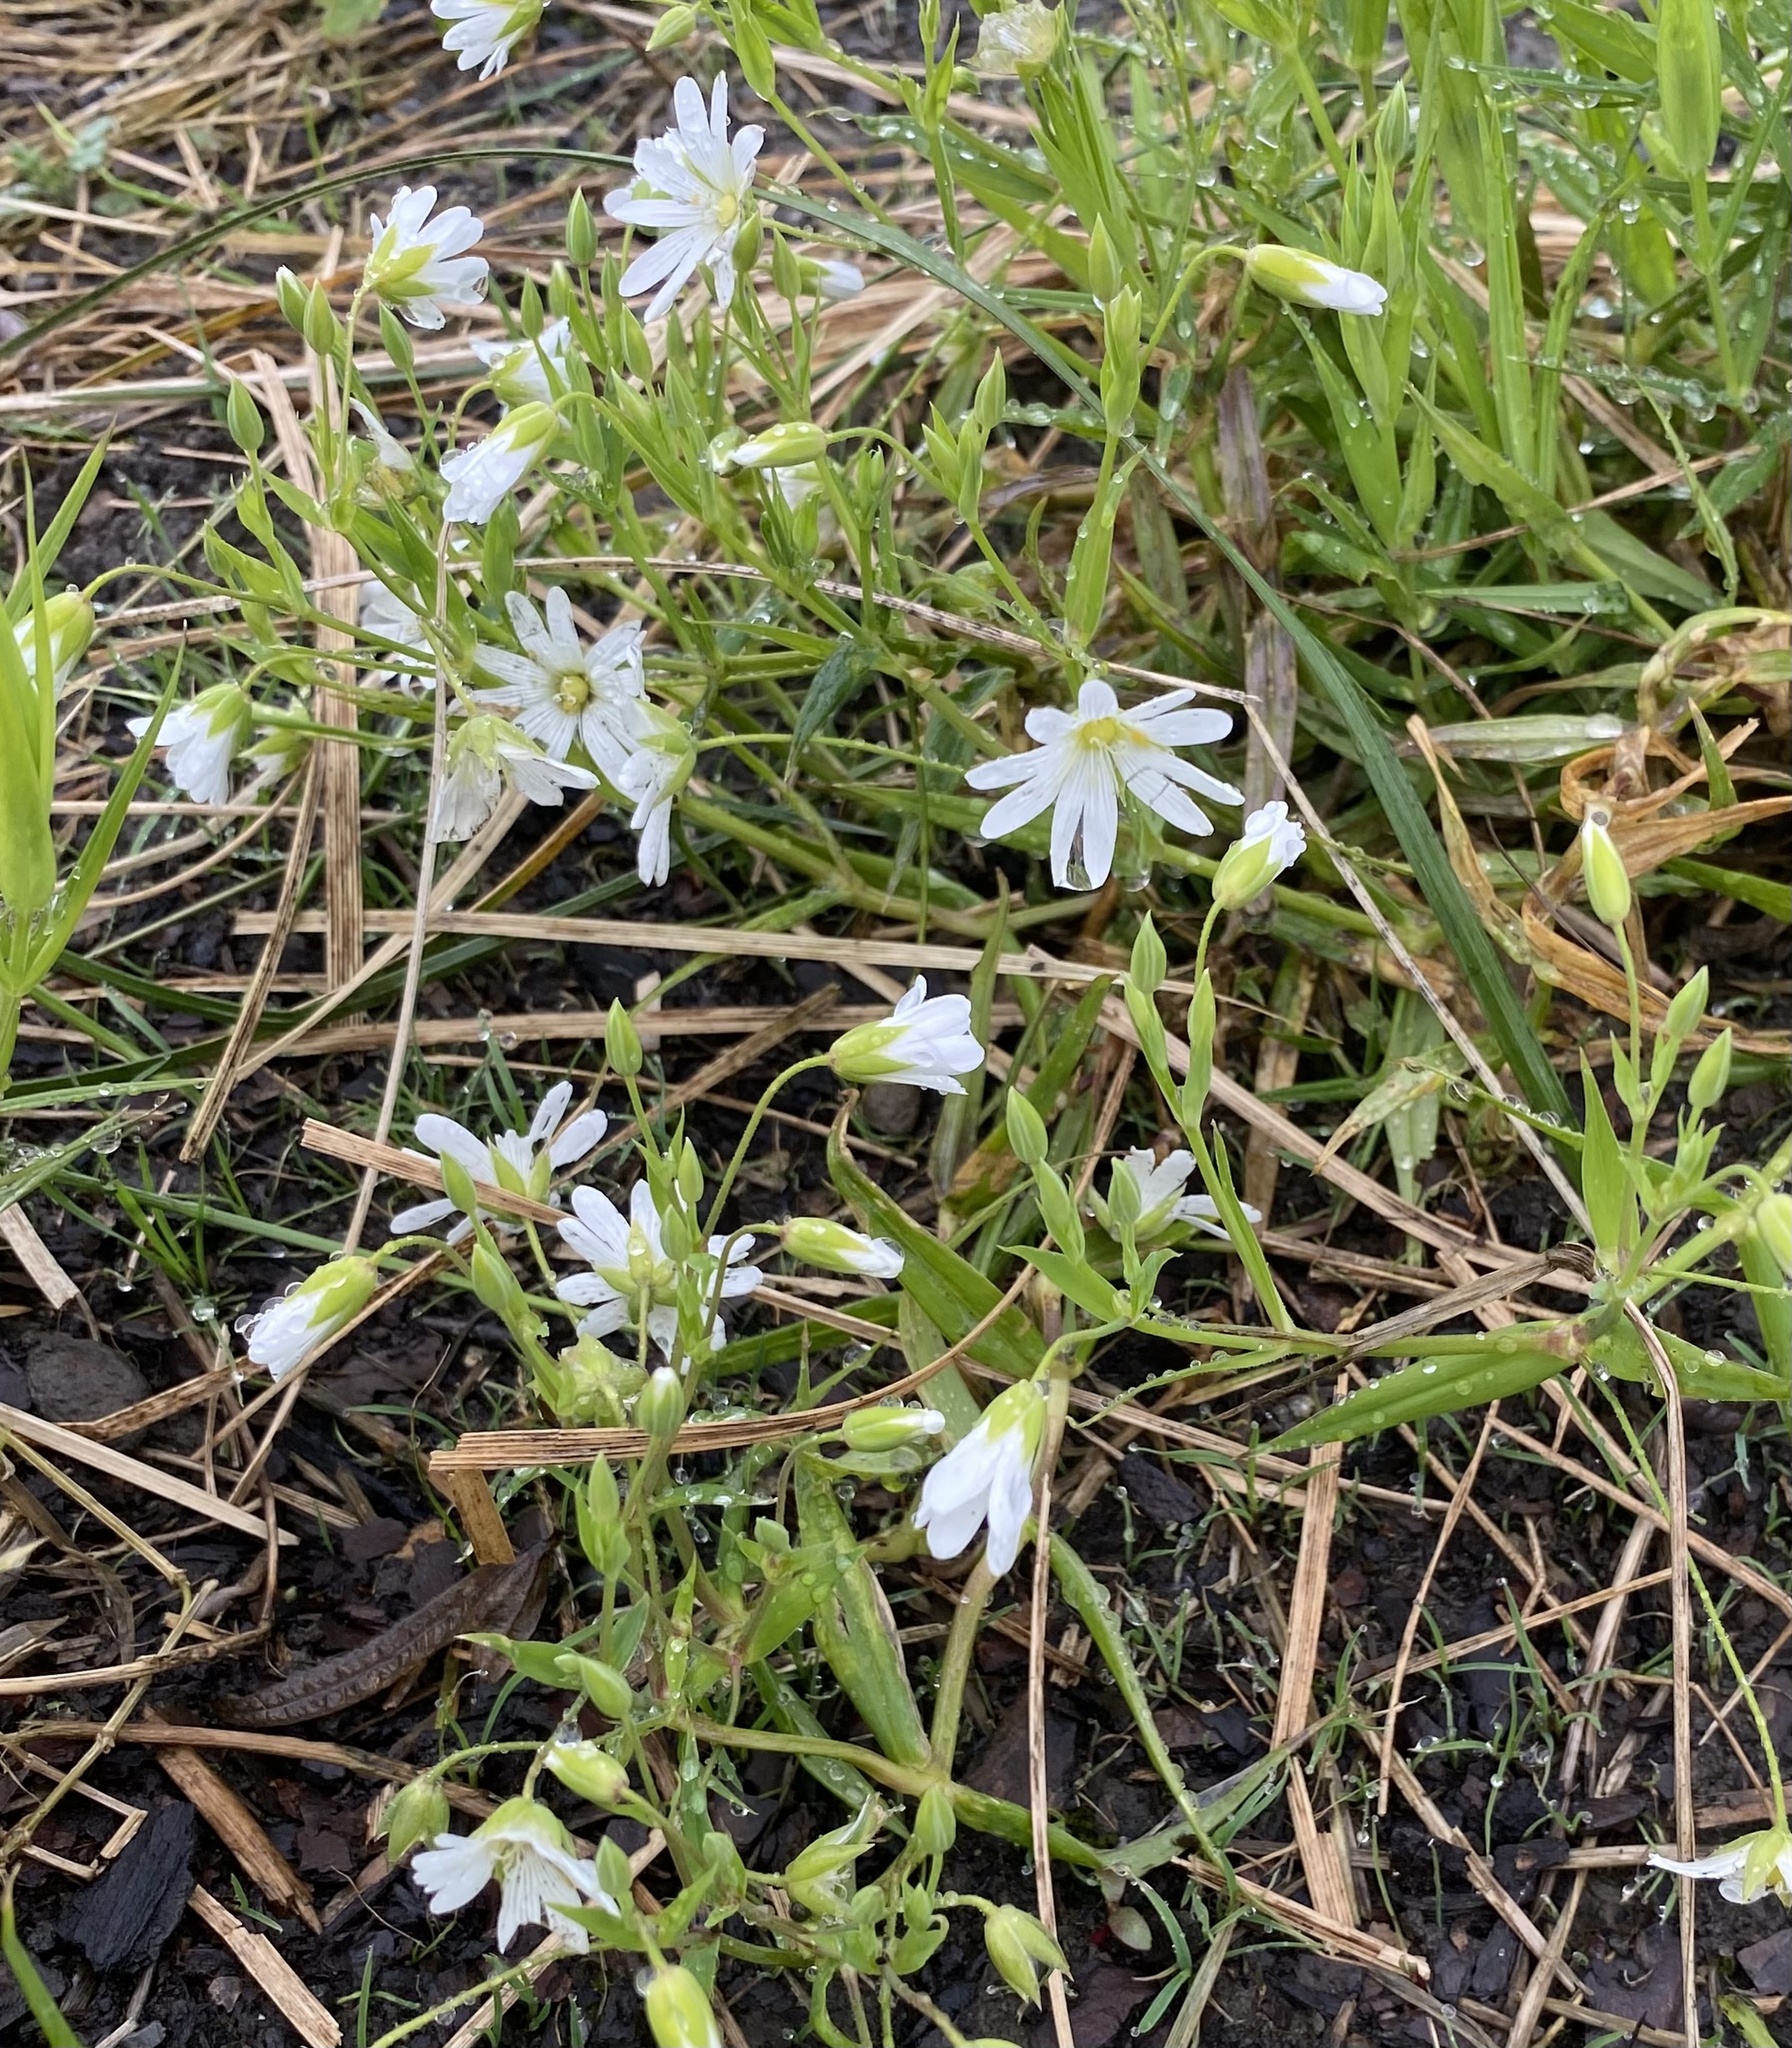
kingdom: Plantae
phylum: Tracheophyta
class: Magnoliopsida
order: Caryophyllales
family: Caryophyllaceae
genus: Rabelera
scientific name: Rabelera holostea
